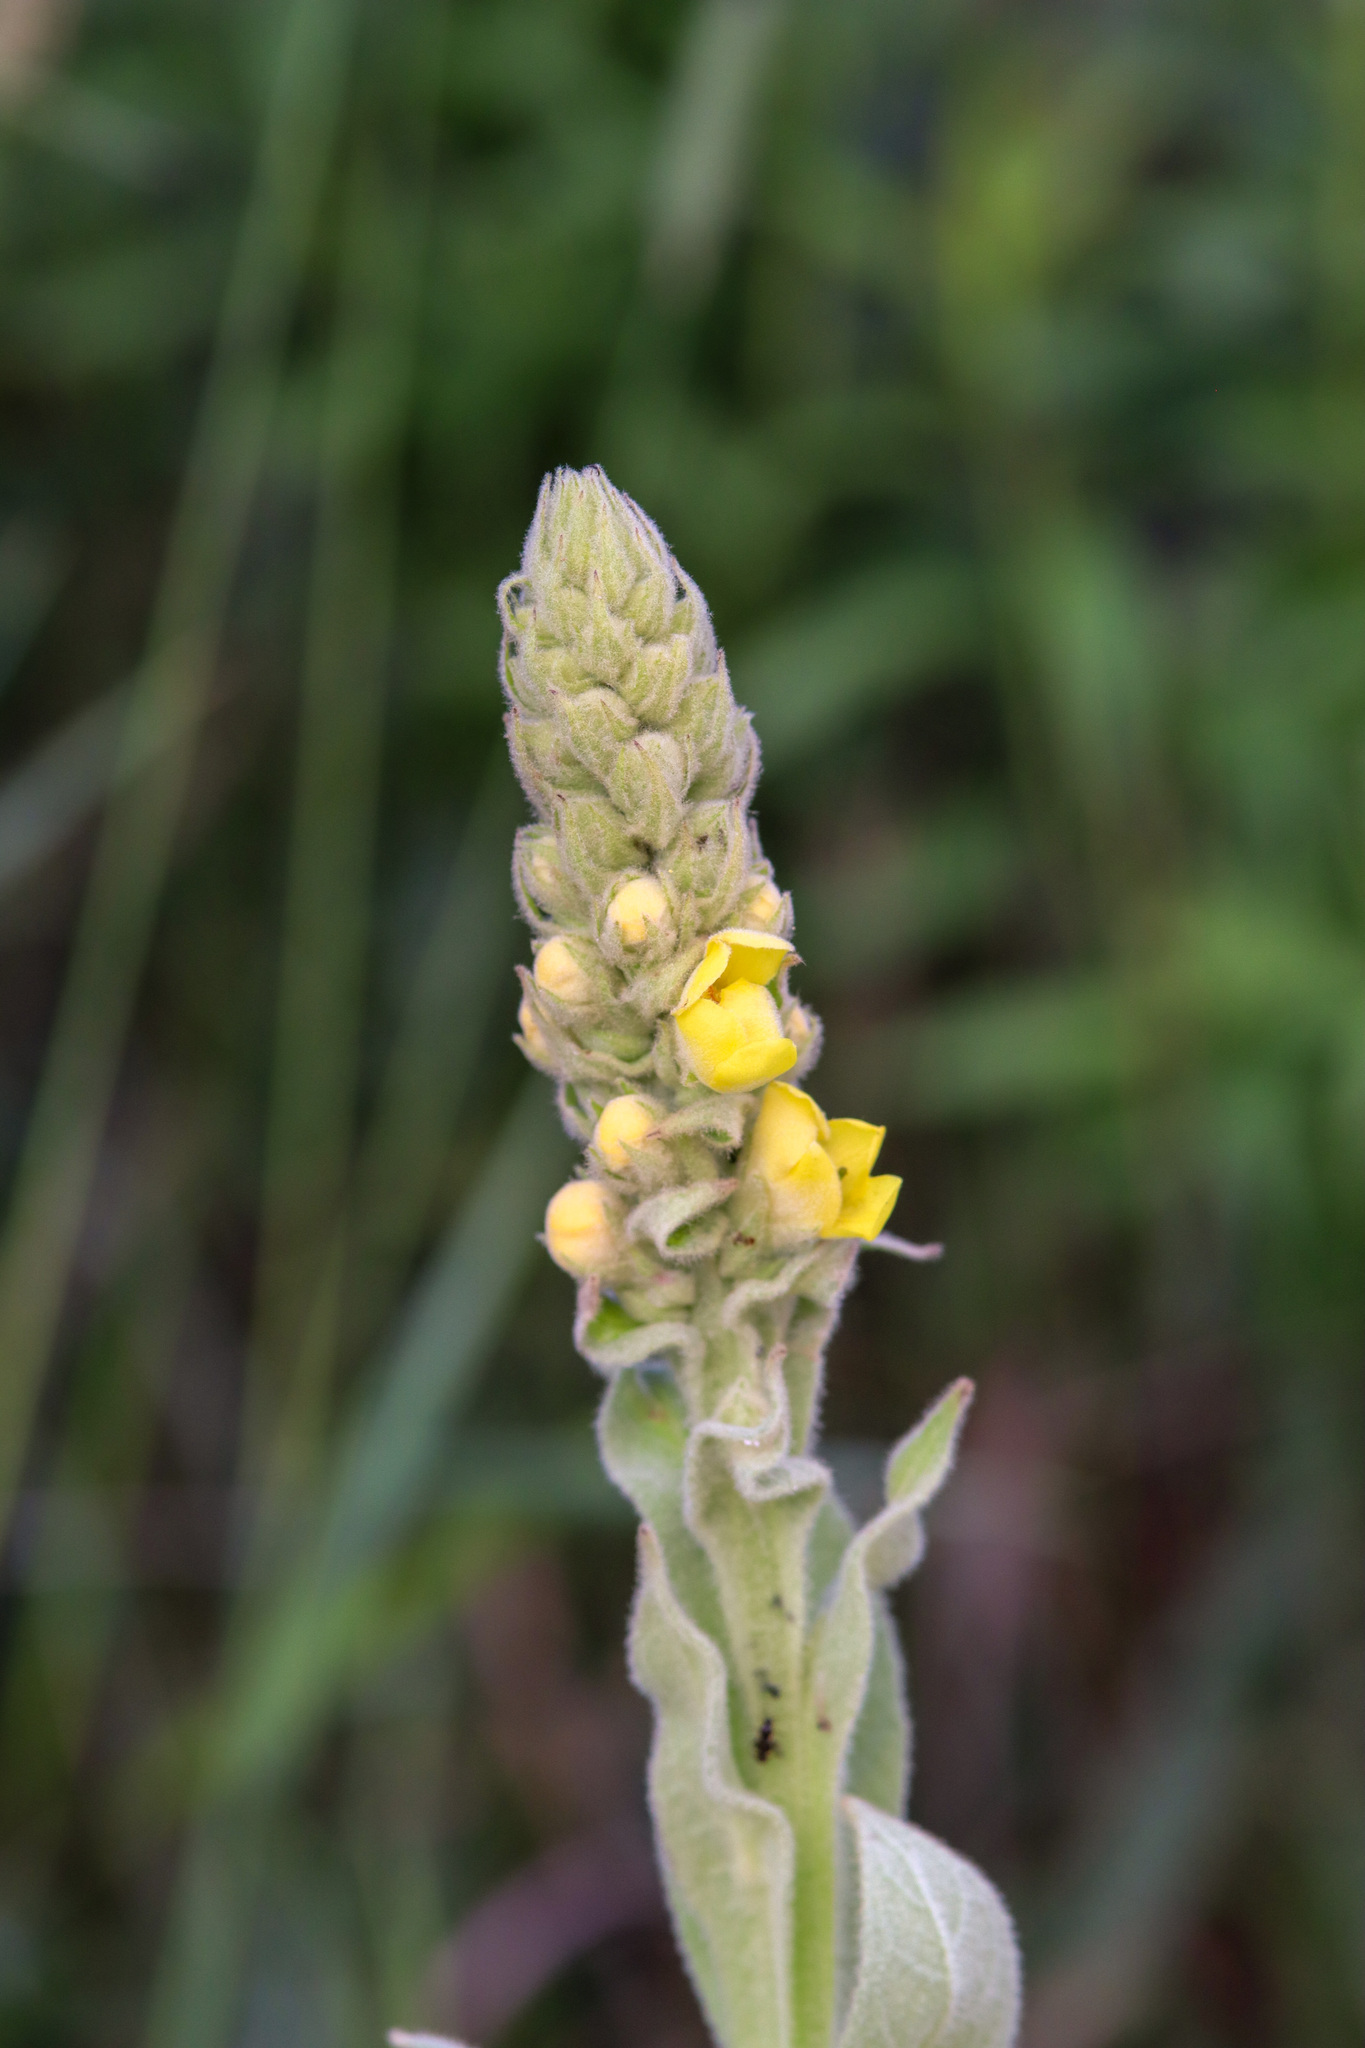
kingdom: Plantae
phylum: Tracheophyta
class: Magnoliopsida
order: Lamiales
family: Scrophulariaceae
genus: Verbascum
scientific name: Verbascum thapsus
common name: Common mullein
